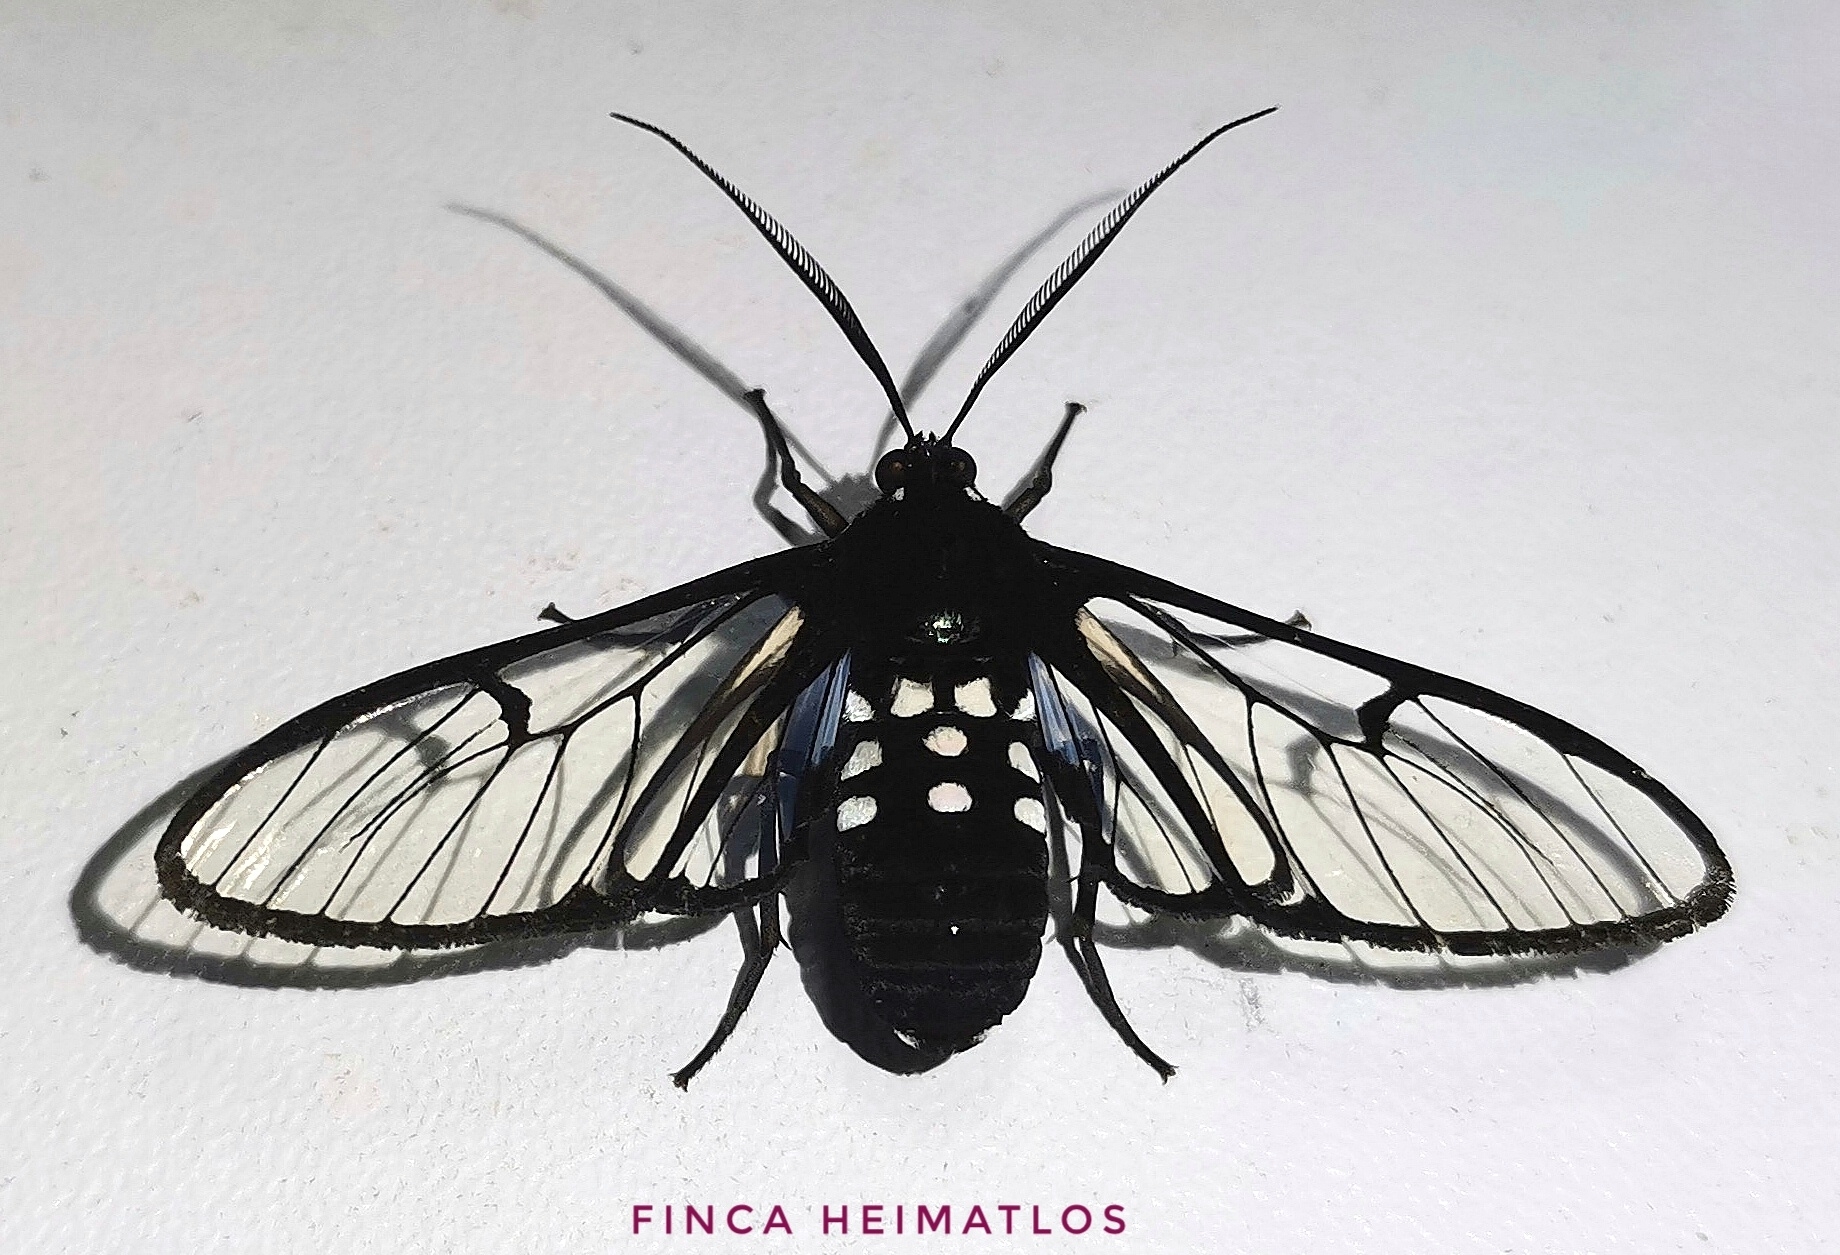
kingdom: Animalia
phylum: Arthropoda
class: Insecta
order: Lepidoptera
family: Erebidae
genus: Homoeocera
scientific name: Homoeocera trizona
